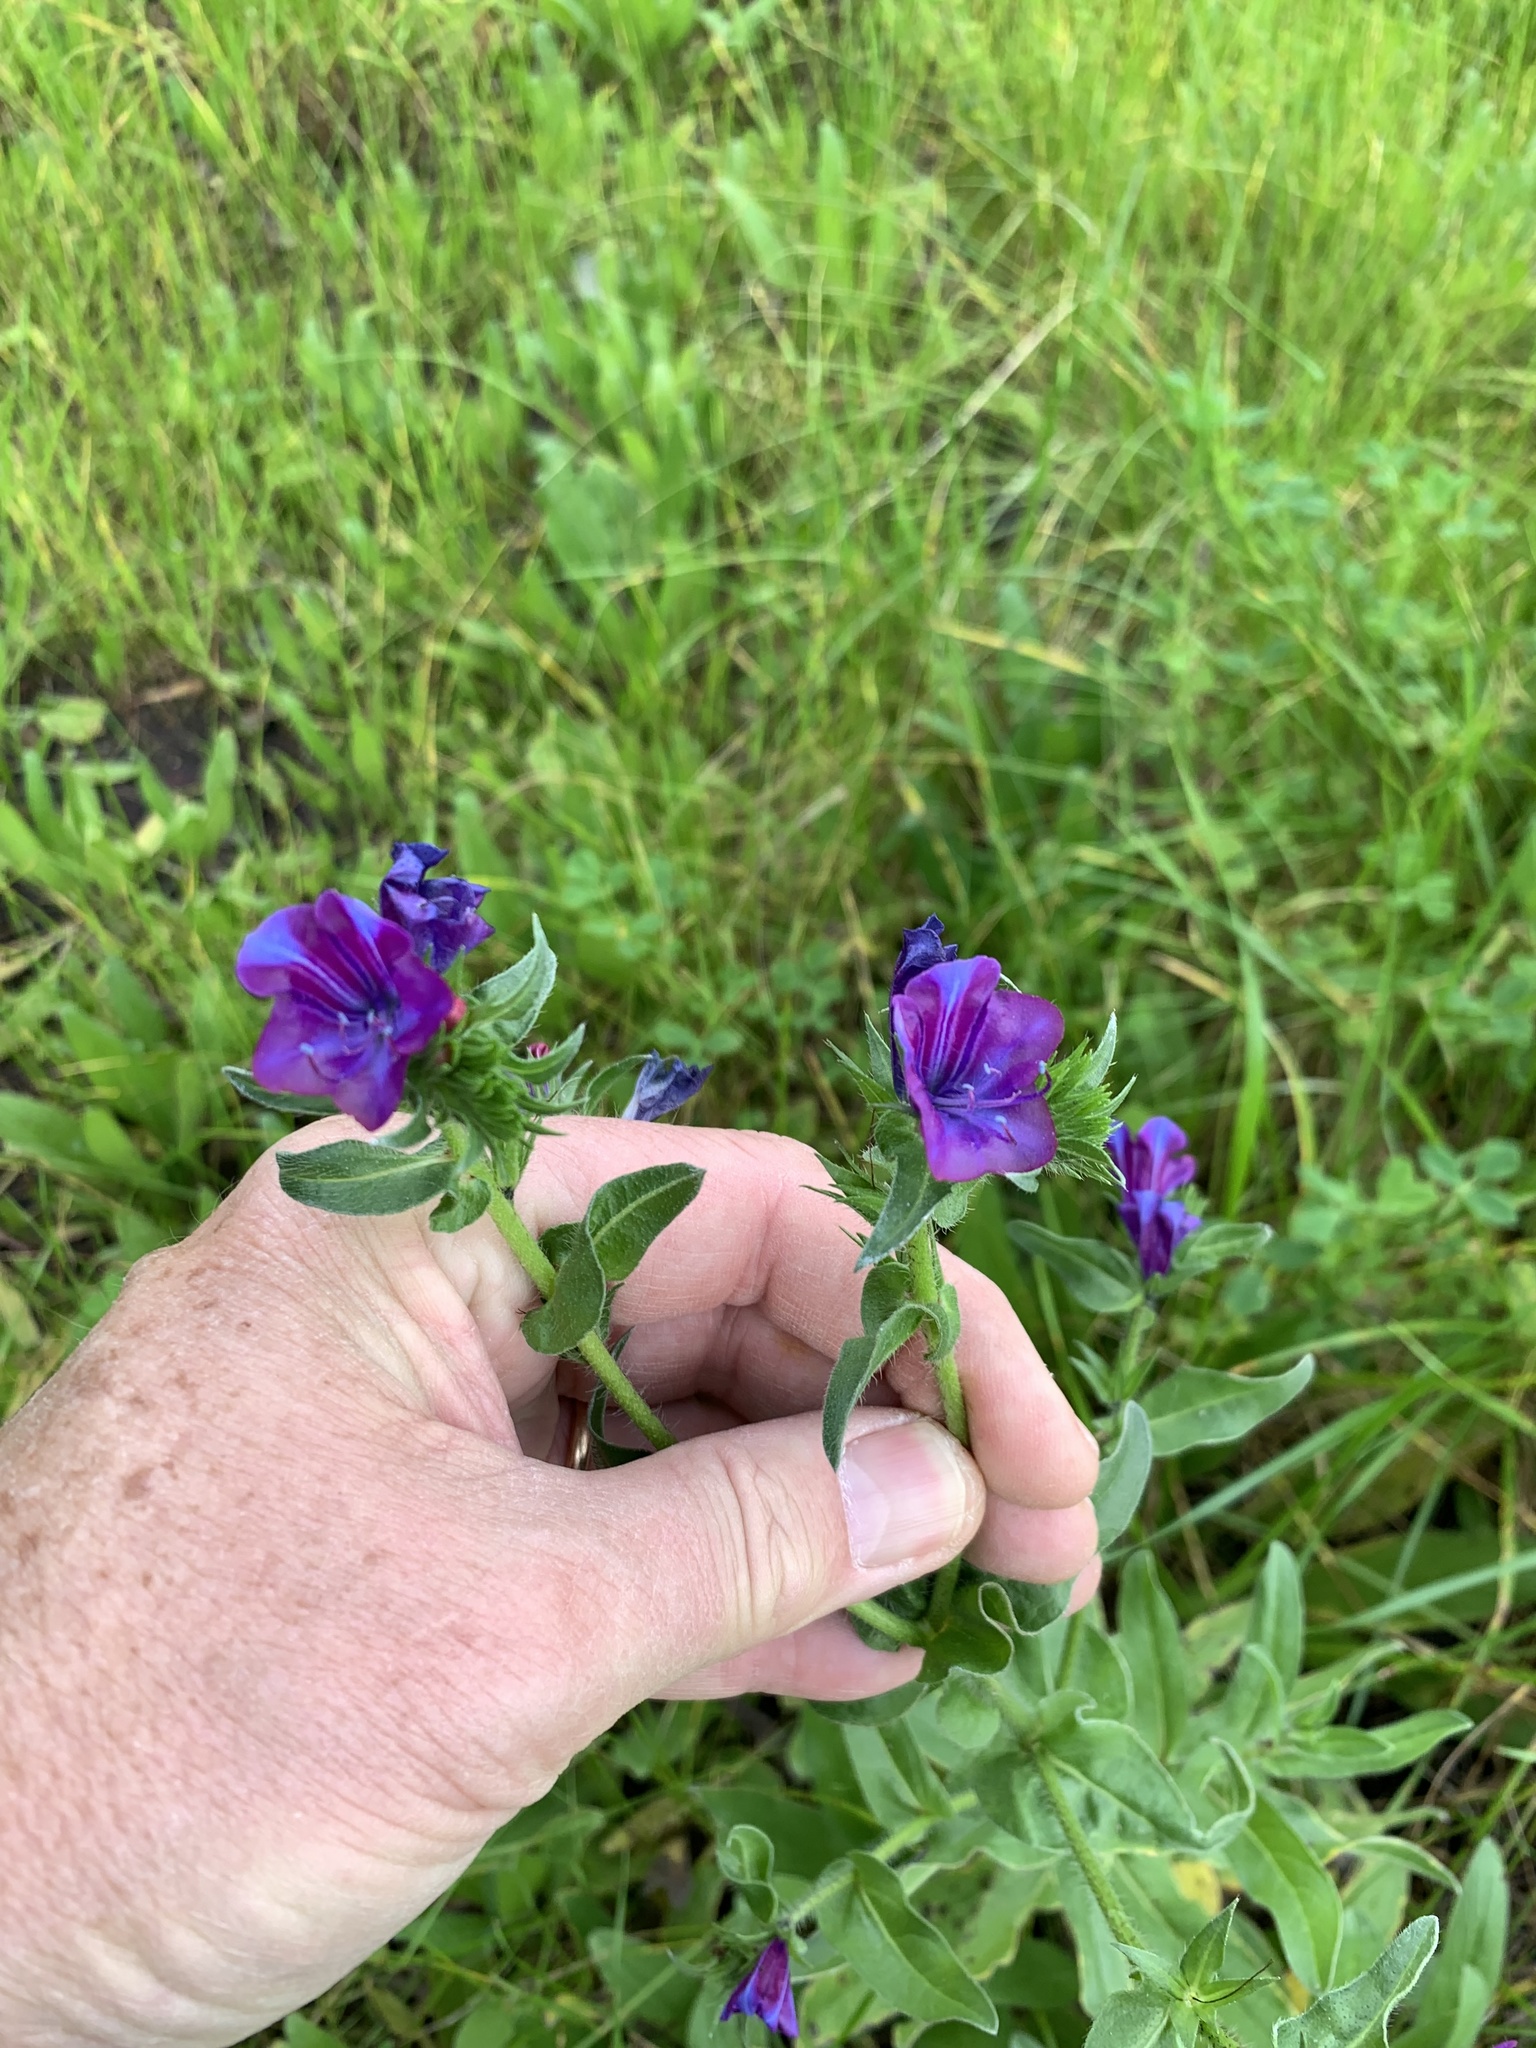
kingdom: Plantae
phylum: Tracheophyta
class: Magnoliopsida
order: Boraginales
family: Boraginaceae
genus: Echium
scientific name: Echium plantagineum
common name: Purple viper's-bugloss
